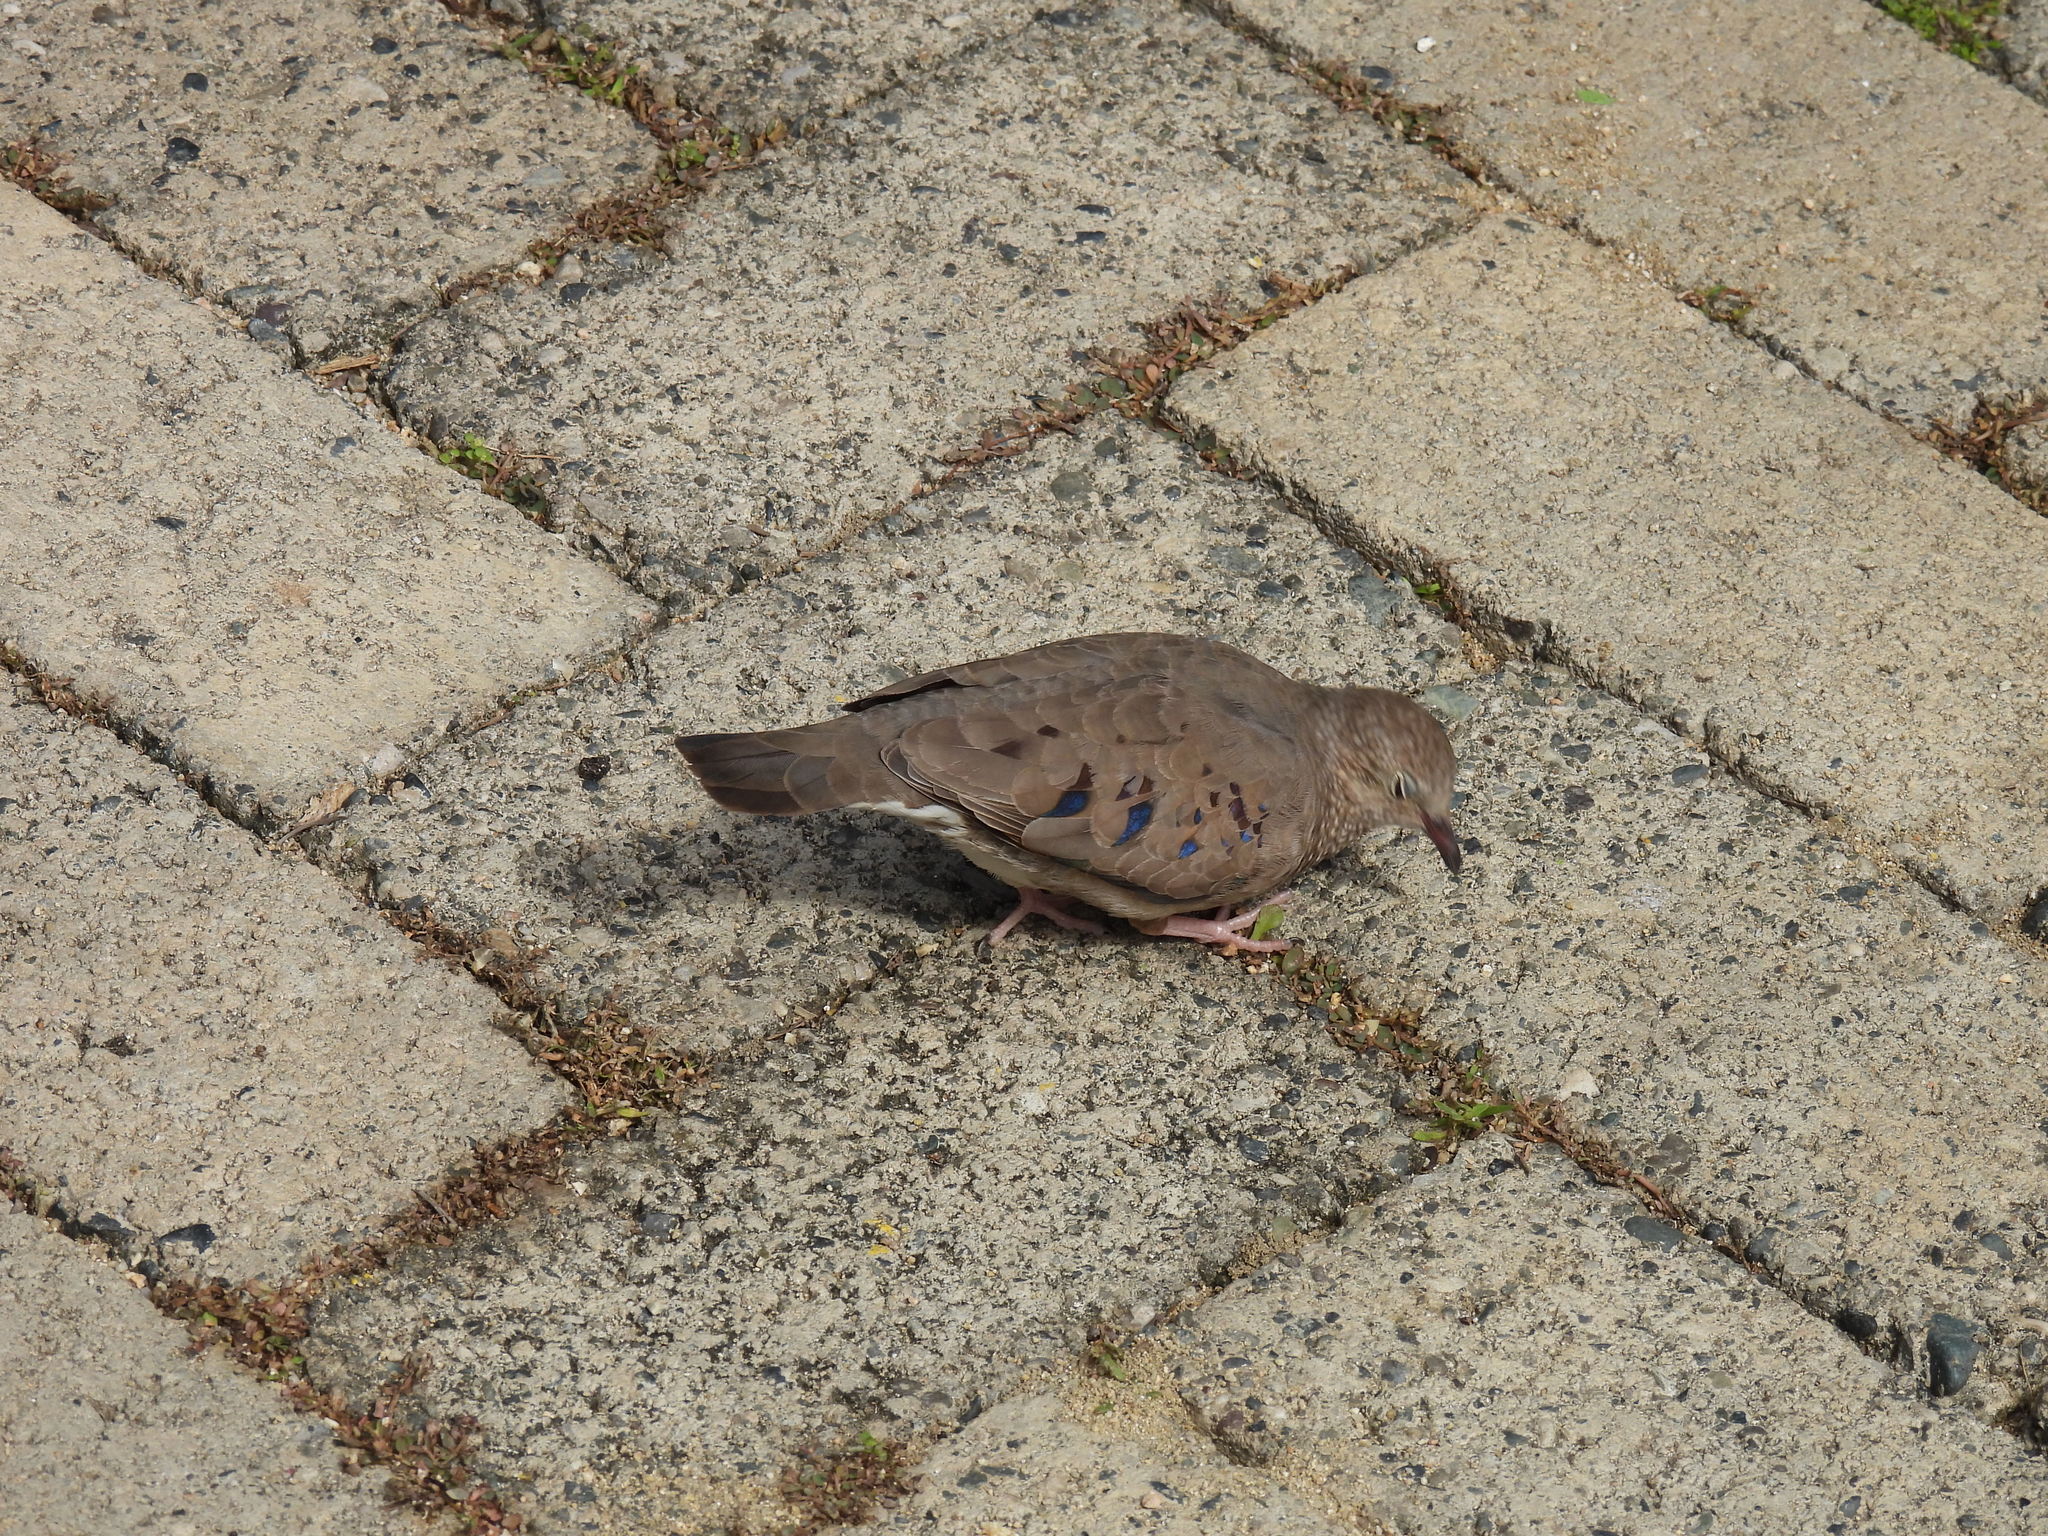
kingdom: Animalia
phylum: Chordata
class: Aves
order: Columbiformes
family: Columbidae
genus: Columbina
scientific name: Columbina passerina
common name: Common ground-dove
